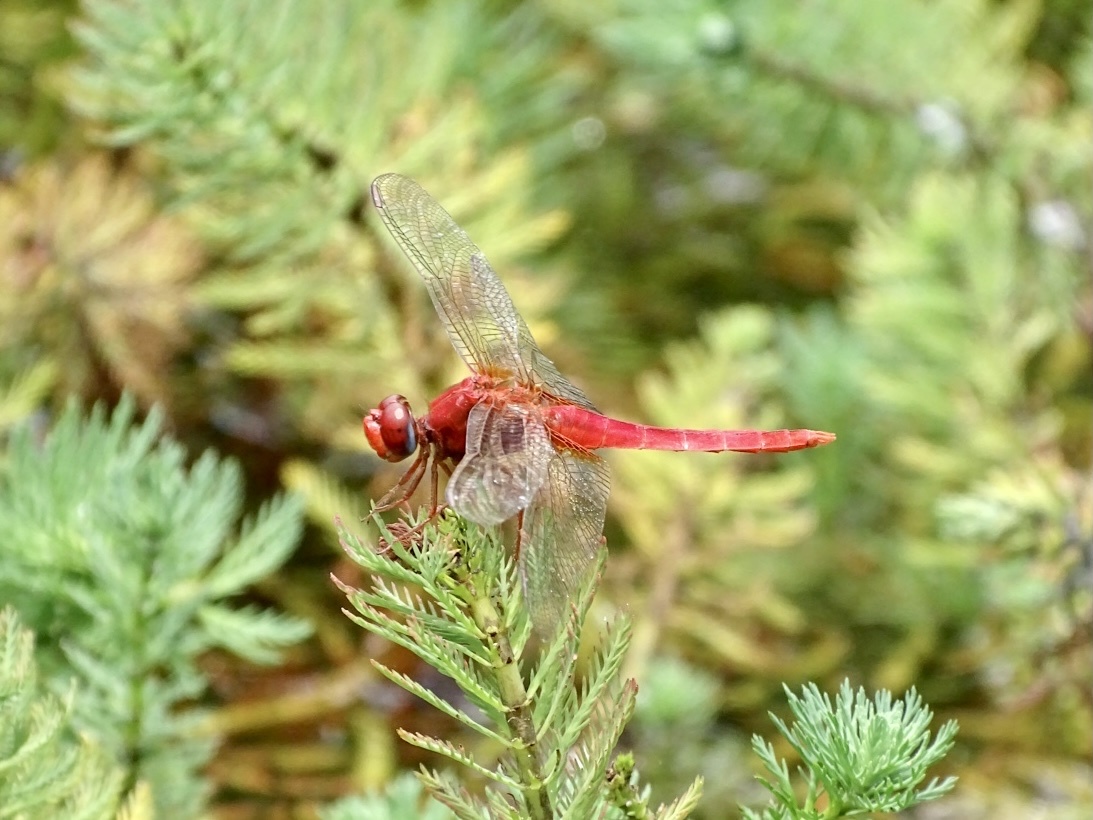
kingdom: Animalia
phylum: Arthropoda
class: Insecta
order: Odonata
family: Libellulidae
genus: Crocothemis
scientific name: Crocothemis servilia
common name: Scarlet skimmer
